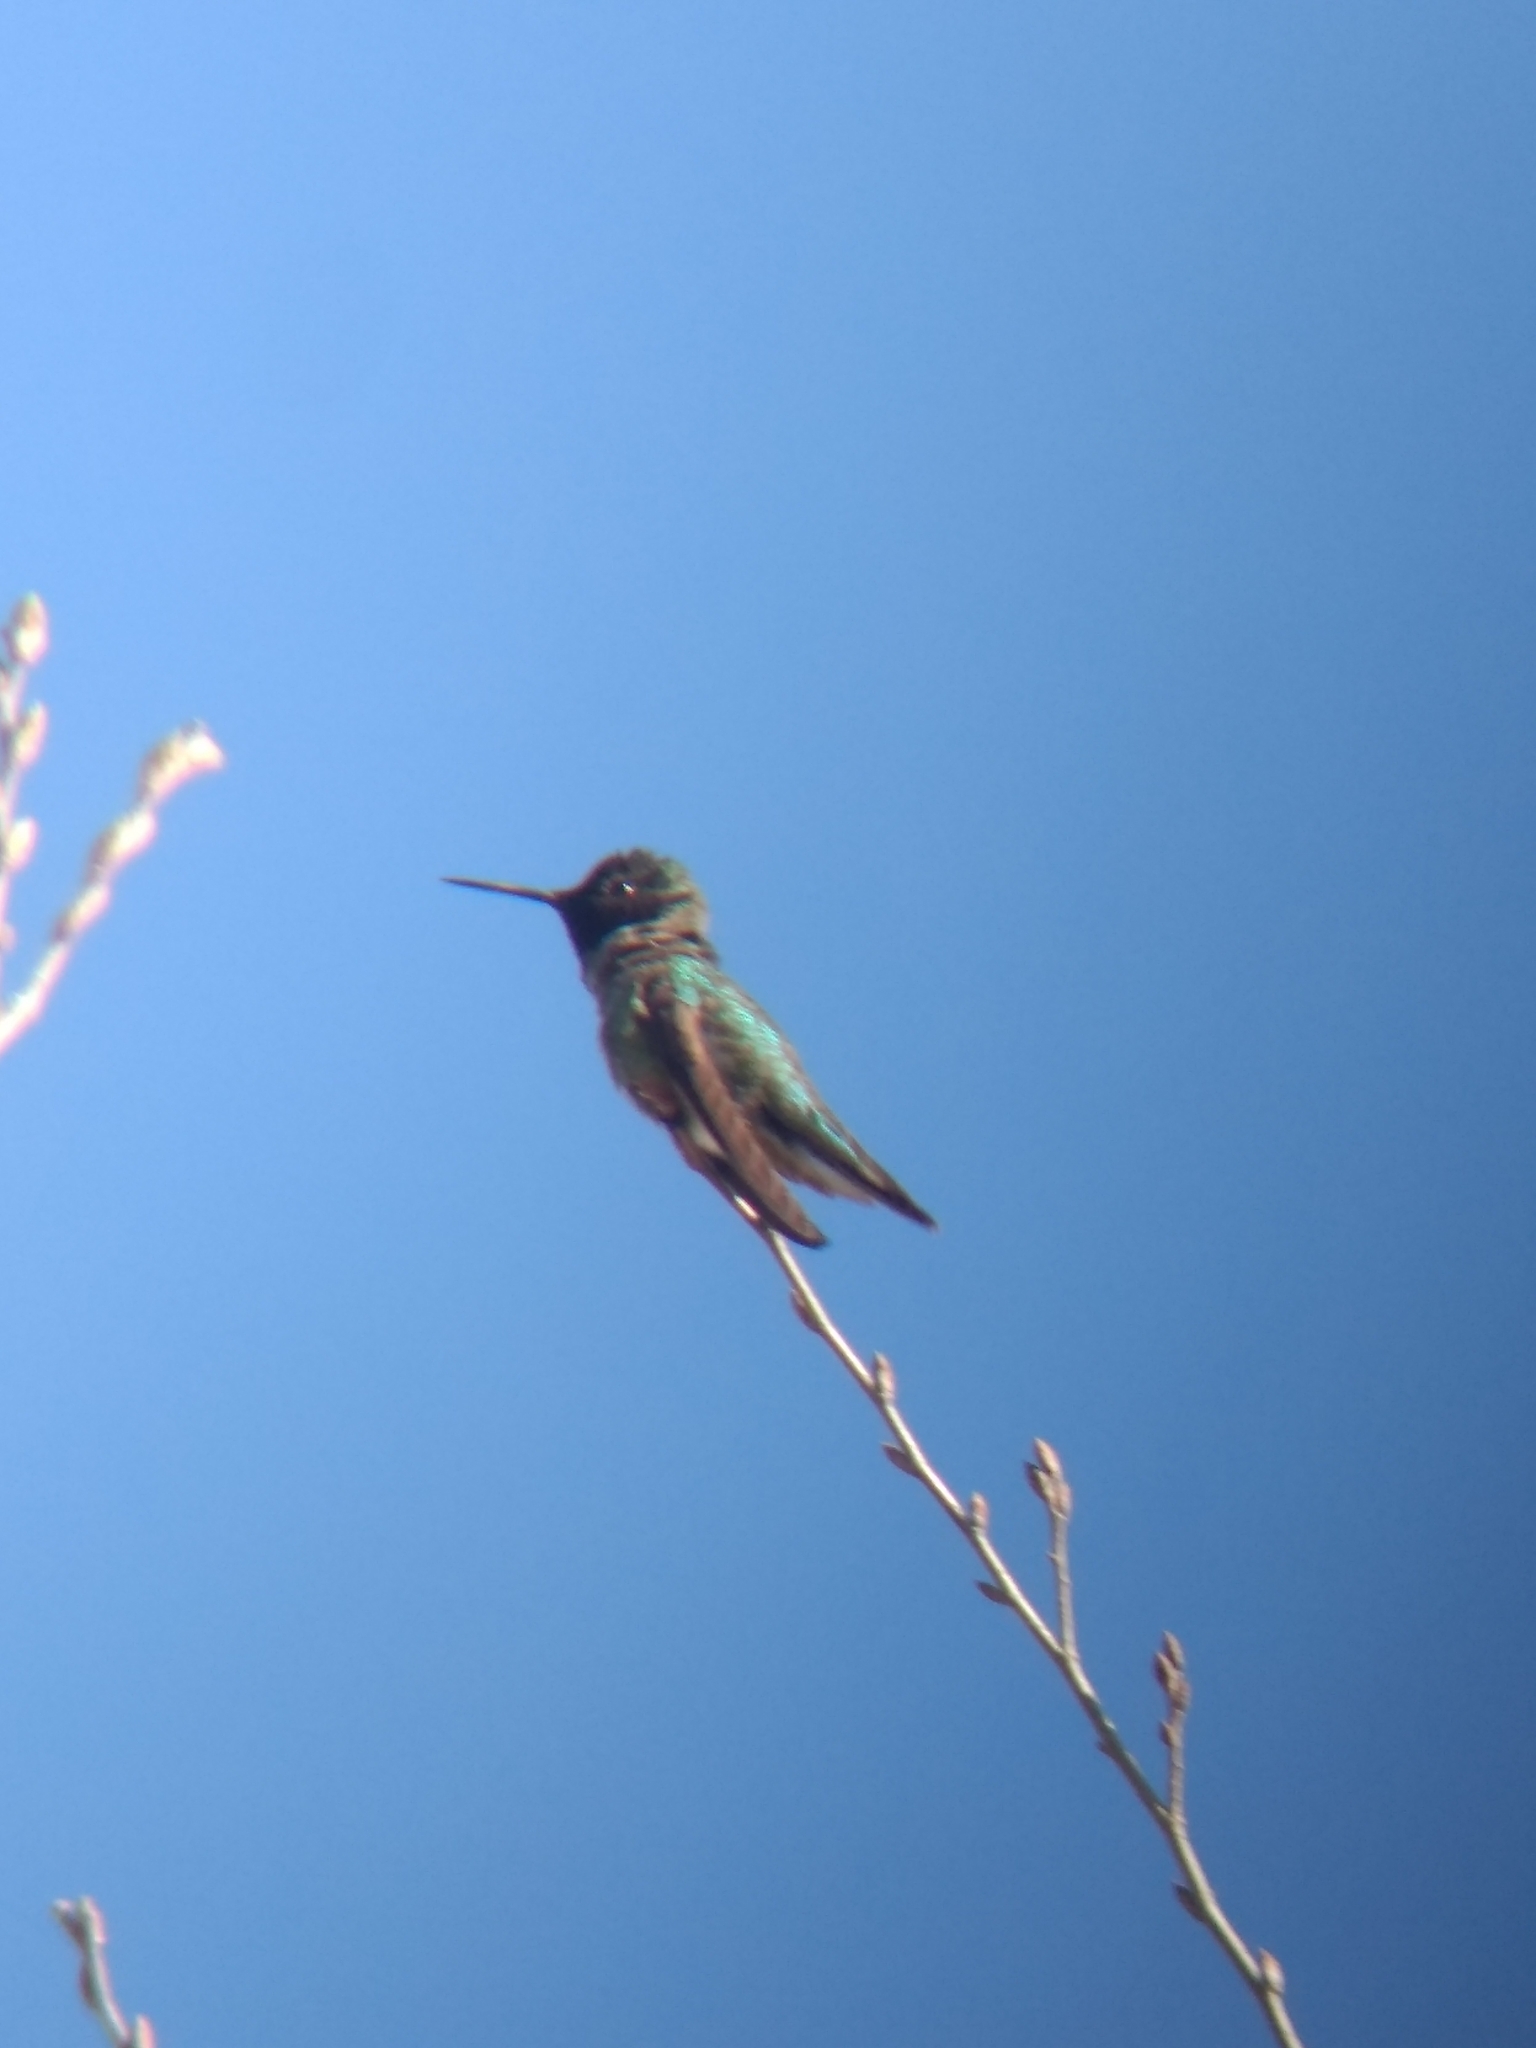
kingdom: Animalia
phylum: Chordata
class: Aves
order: Apodiformes
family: Trochilidae
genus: Calypte
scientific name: Calypte anna
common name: Anna's hummingbird
